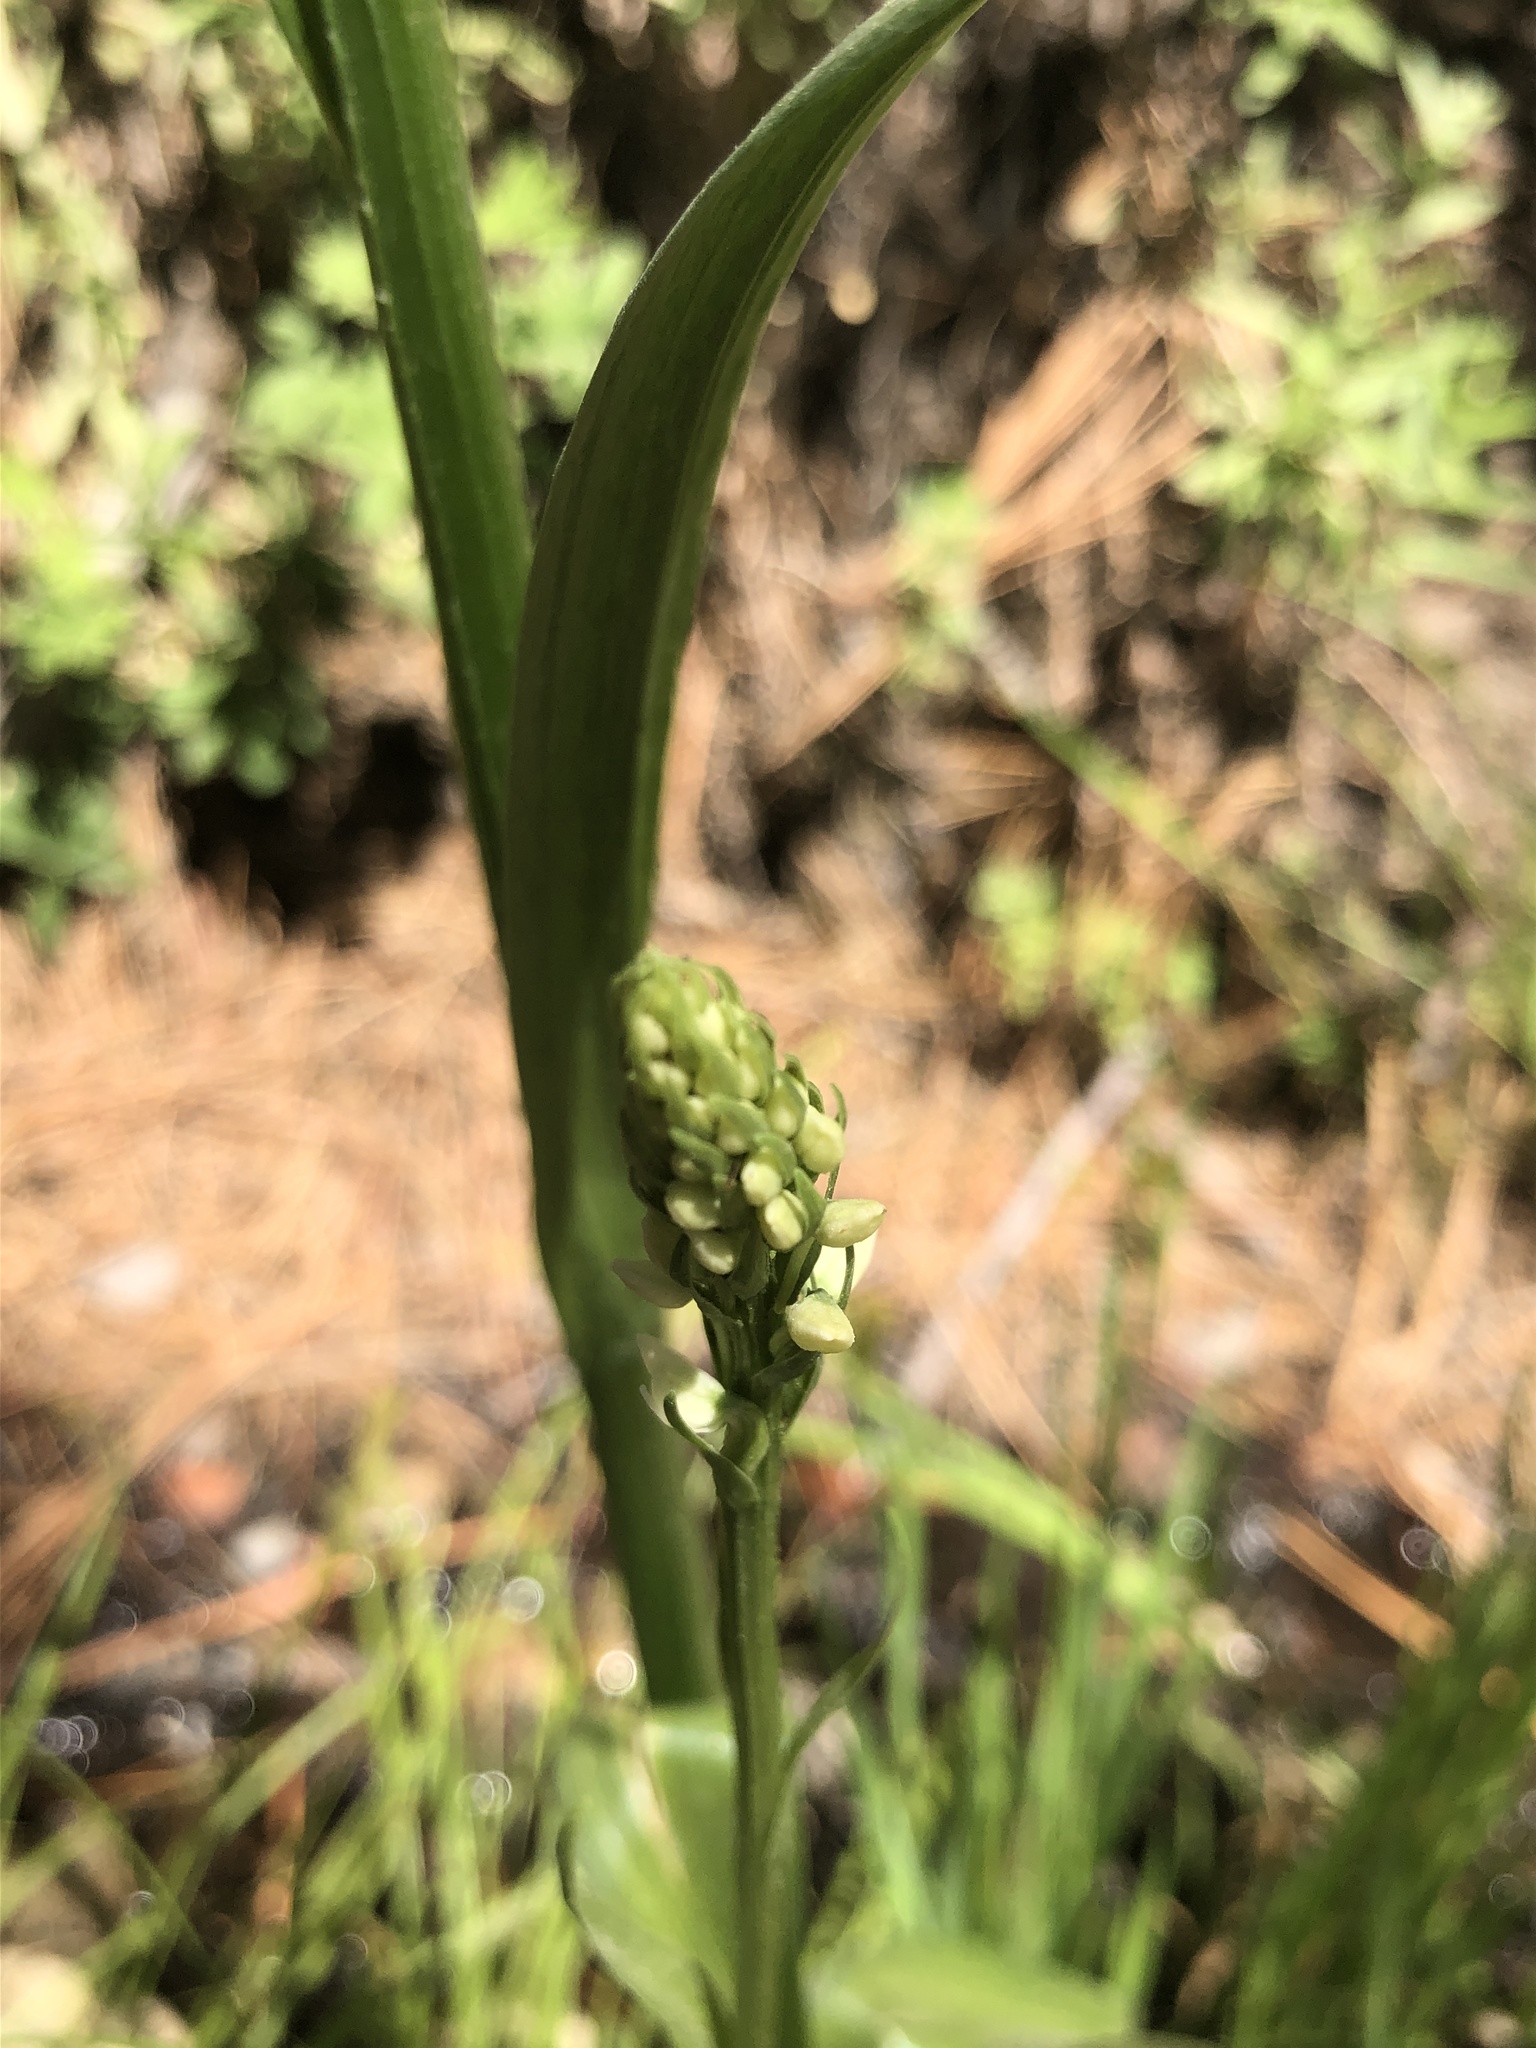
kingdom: Plantae
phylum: Tracheophyta
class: Liliopsida
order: Asparagales
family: Orchidaceae
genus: Platanthera
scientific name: Platanthera dilatata
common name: Bog candles
